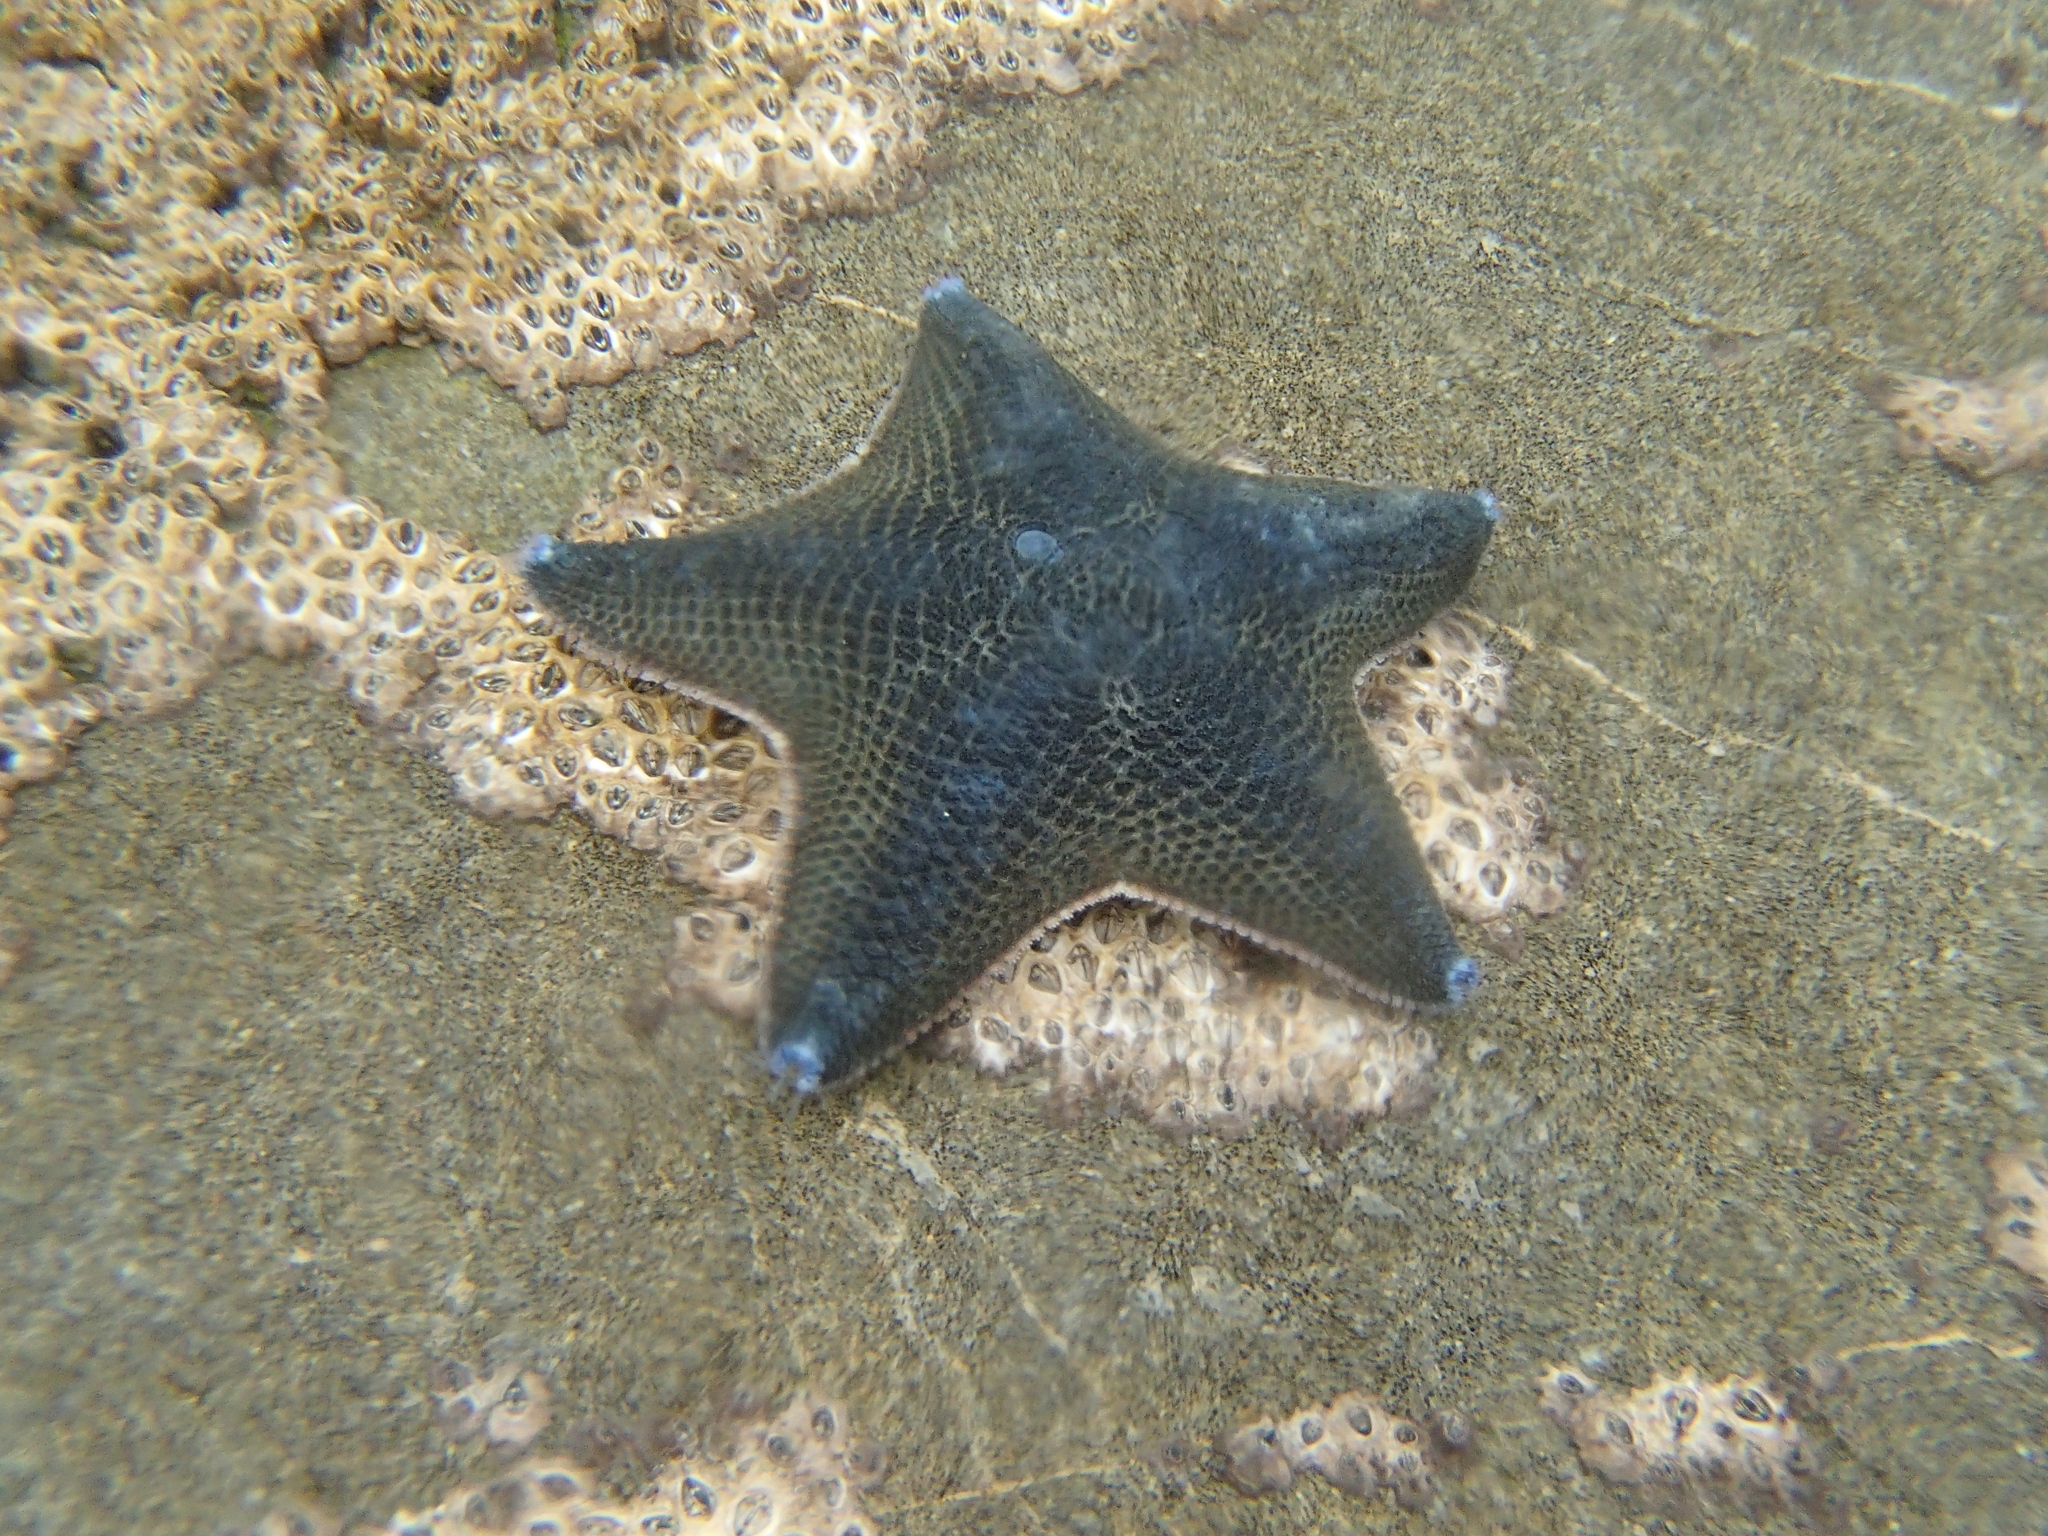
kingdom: Animalia
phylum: Echinodermata
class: Asteroidea
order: Valvatida
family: Asterinidae
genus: Patiriella
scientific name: Patiriella regularis
